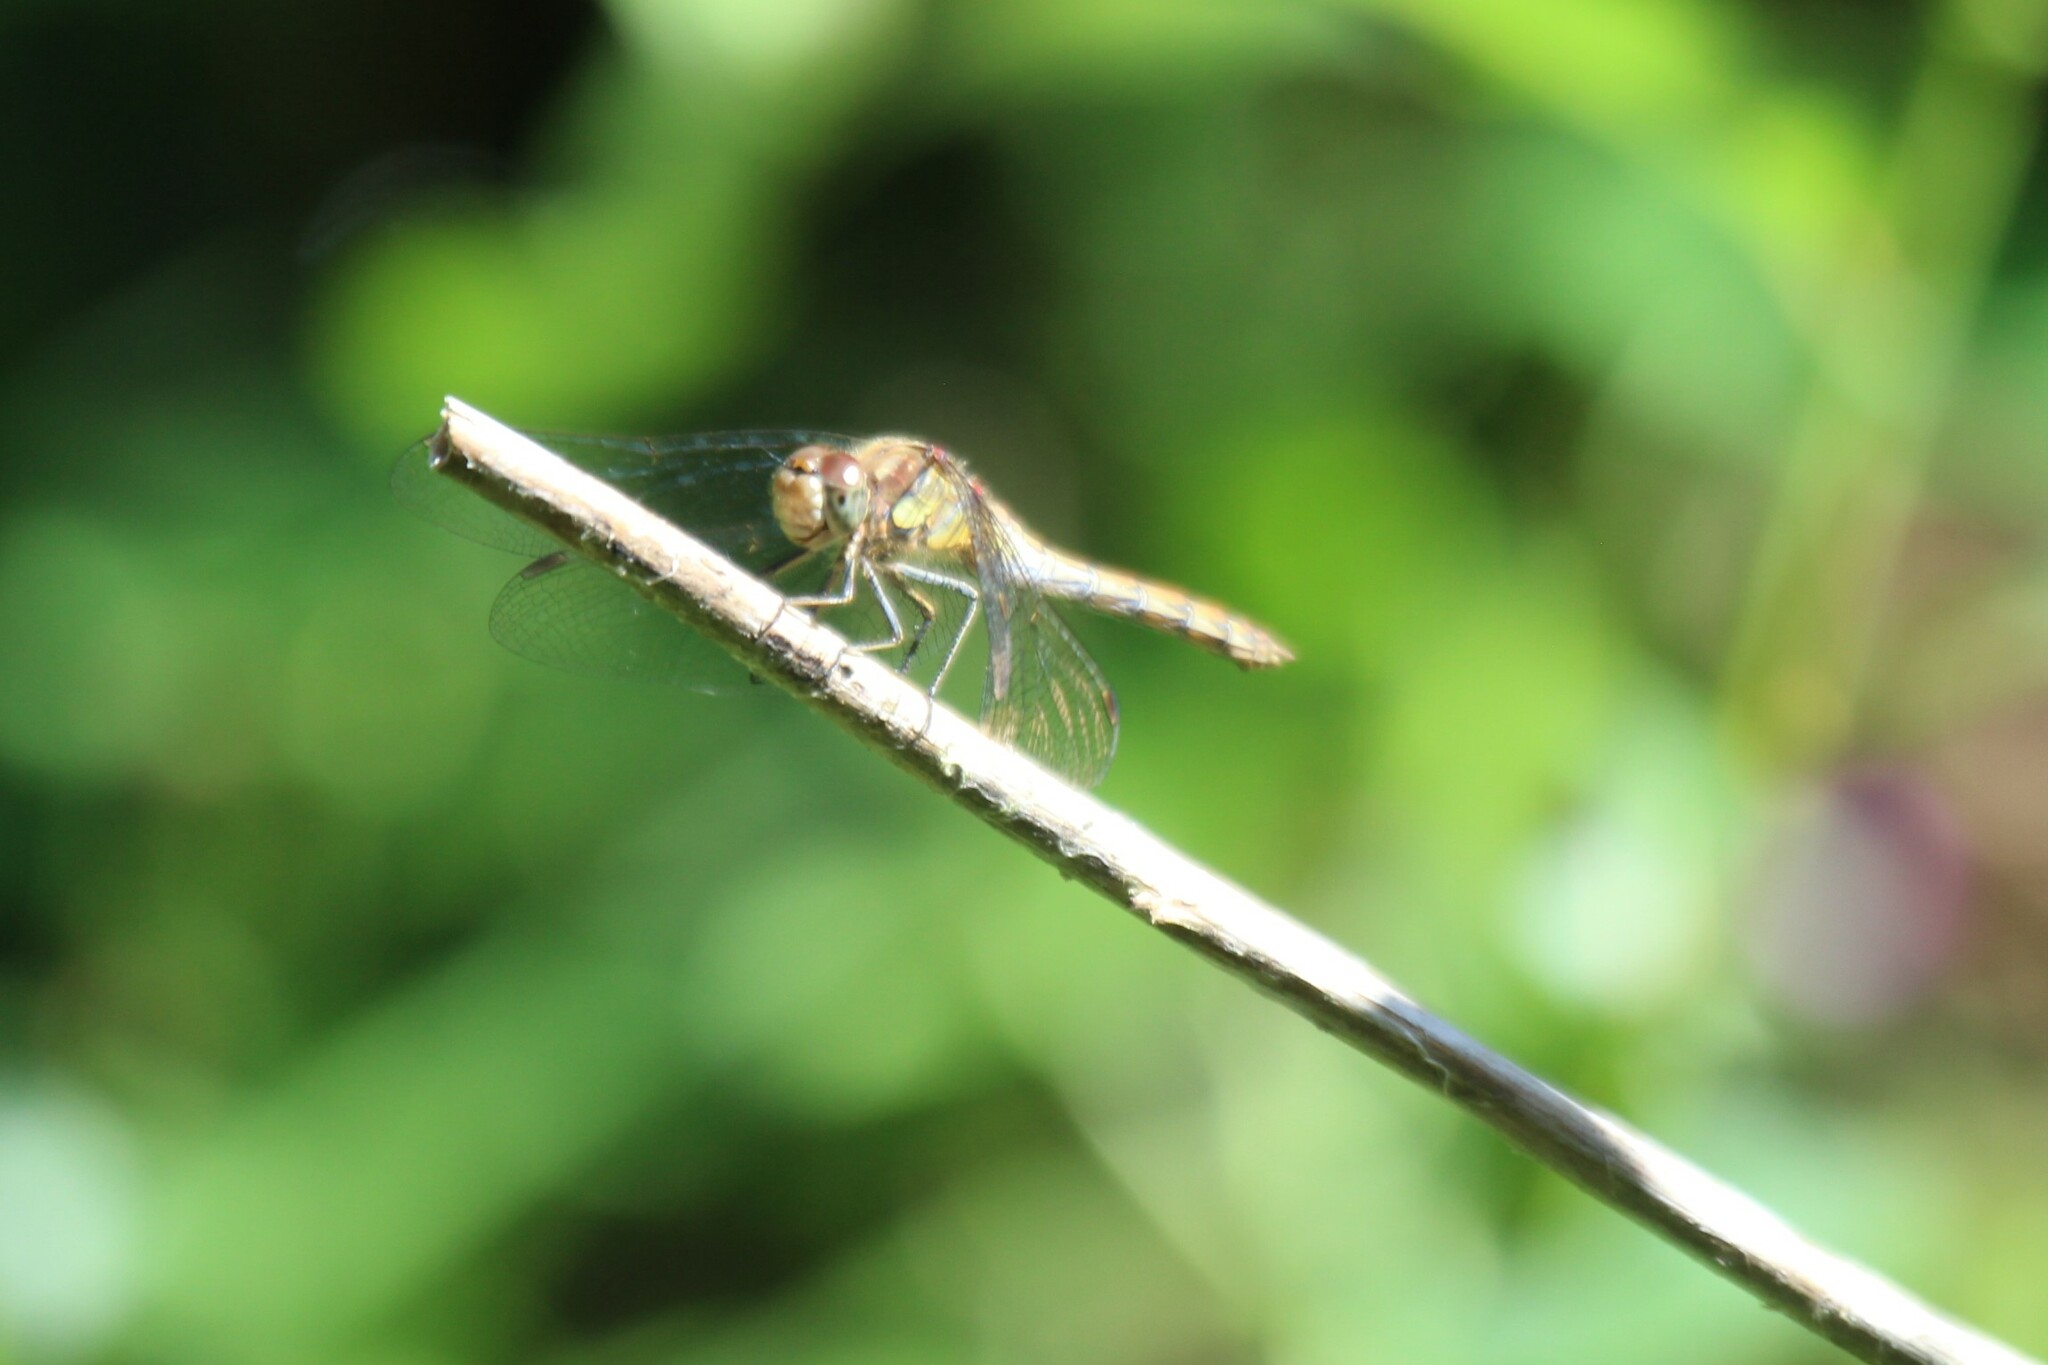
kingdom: Animalia
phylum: Arthropoda
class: Insecta
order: Odonata
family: Libellulidae
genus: Sympetrum
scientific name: Sympetrum striolatum
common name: Common darter
